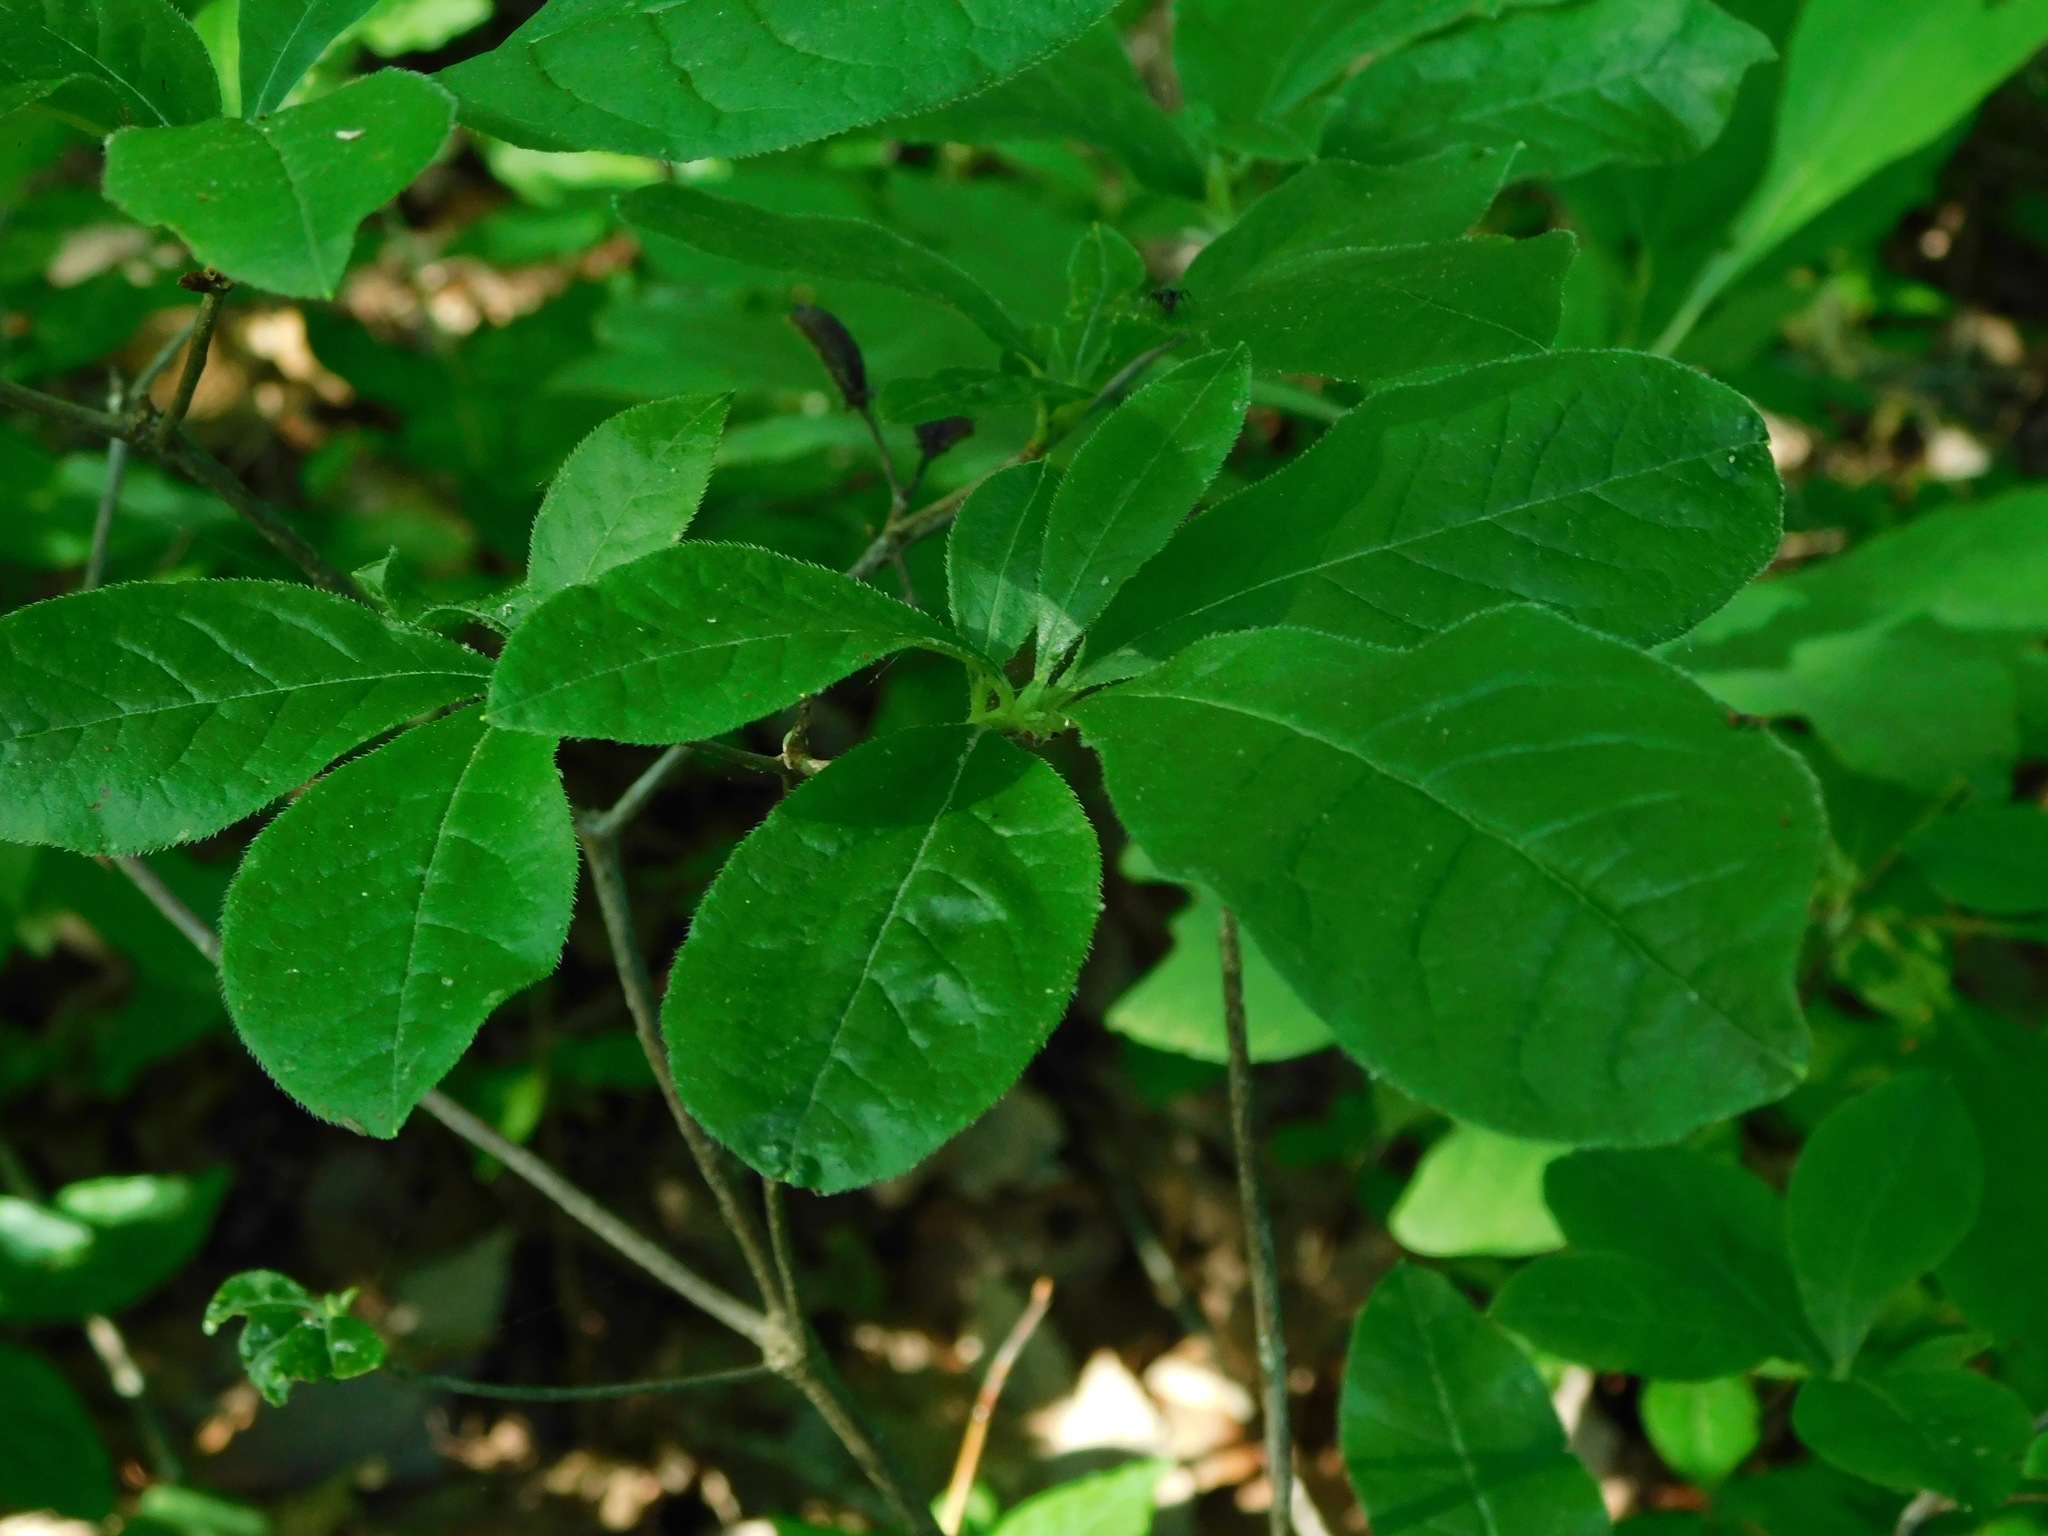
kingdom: Plantae
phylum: Tracheophyta
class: Magnoliopsida
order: Ericales
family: Ericaceae
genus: Rhododendron
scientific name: Rhododendron cumberlandense
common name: Diploid flame azalea
